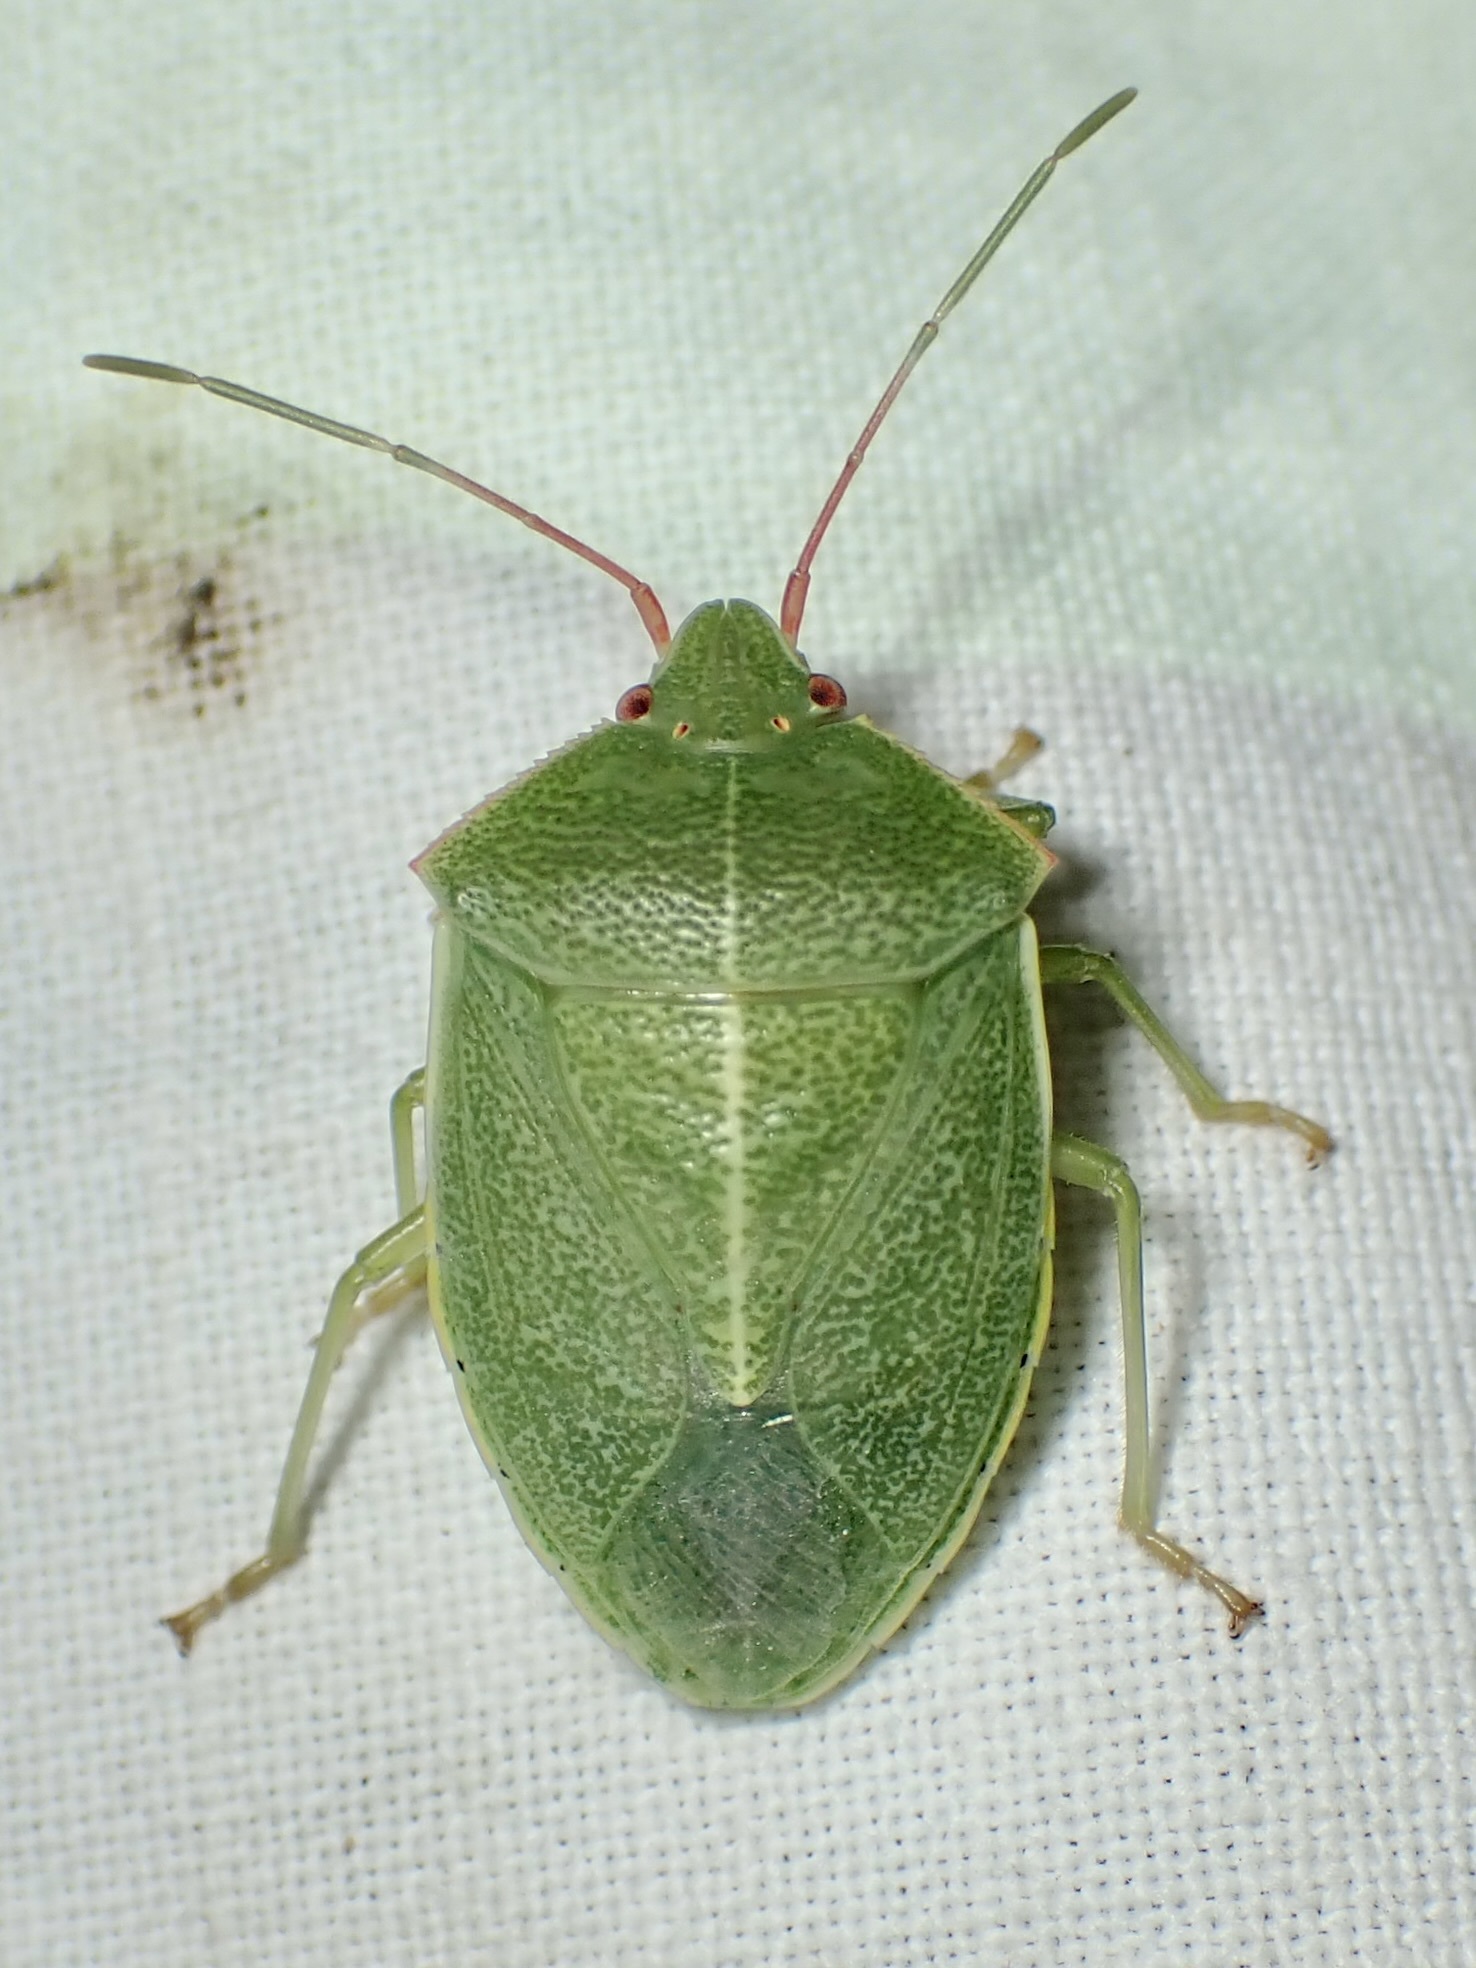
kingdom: Animalia
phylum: Arthropoda
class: Insecta
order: Hemiptera
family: Pentatomidae
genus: Chlorocoris
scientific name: Chlorocoris hebetatus
